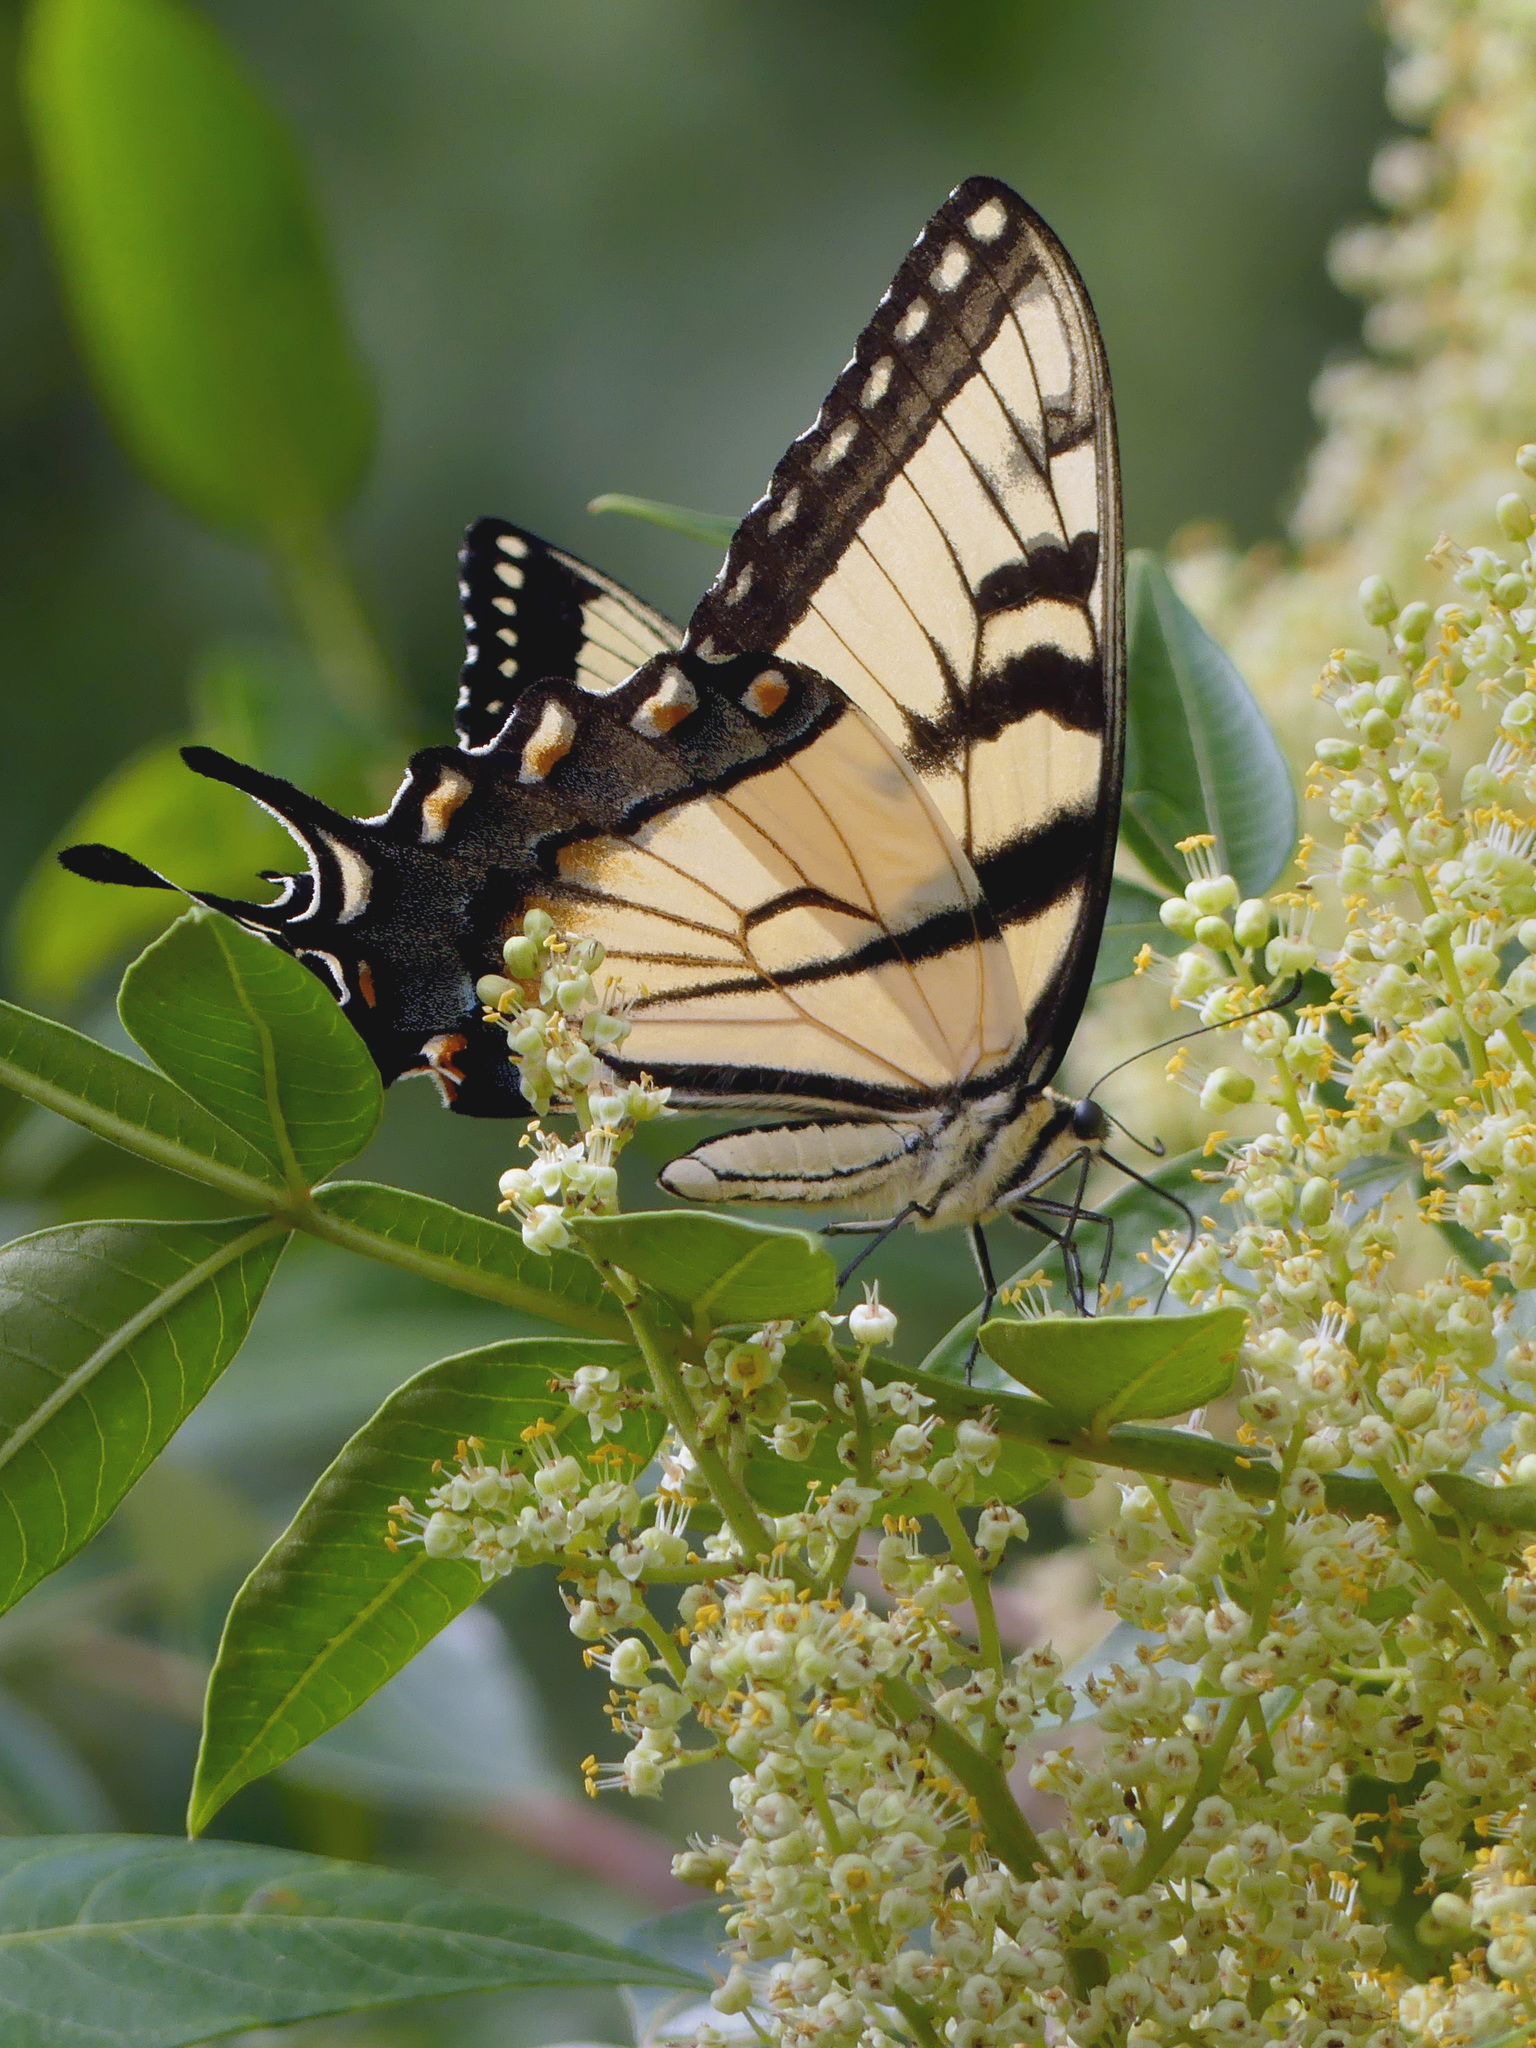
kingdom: Animalia
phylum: Arthropoda
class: Insecta
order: Lepidoptera
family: Papilionidae
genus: Papilio
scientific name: Papilio glaucus
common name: Tiger swallowtail
